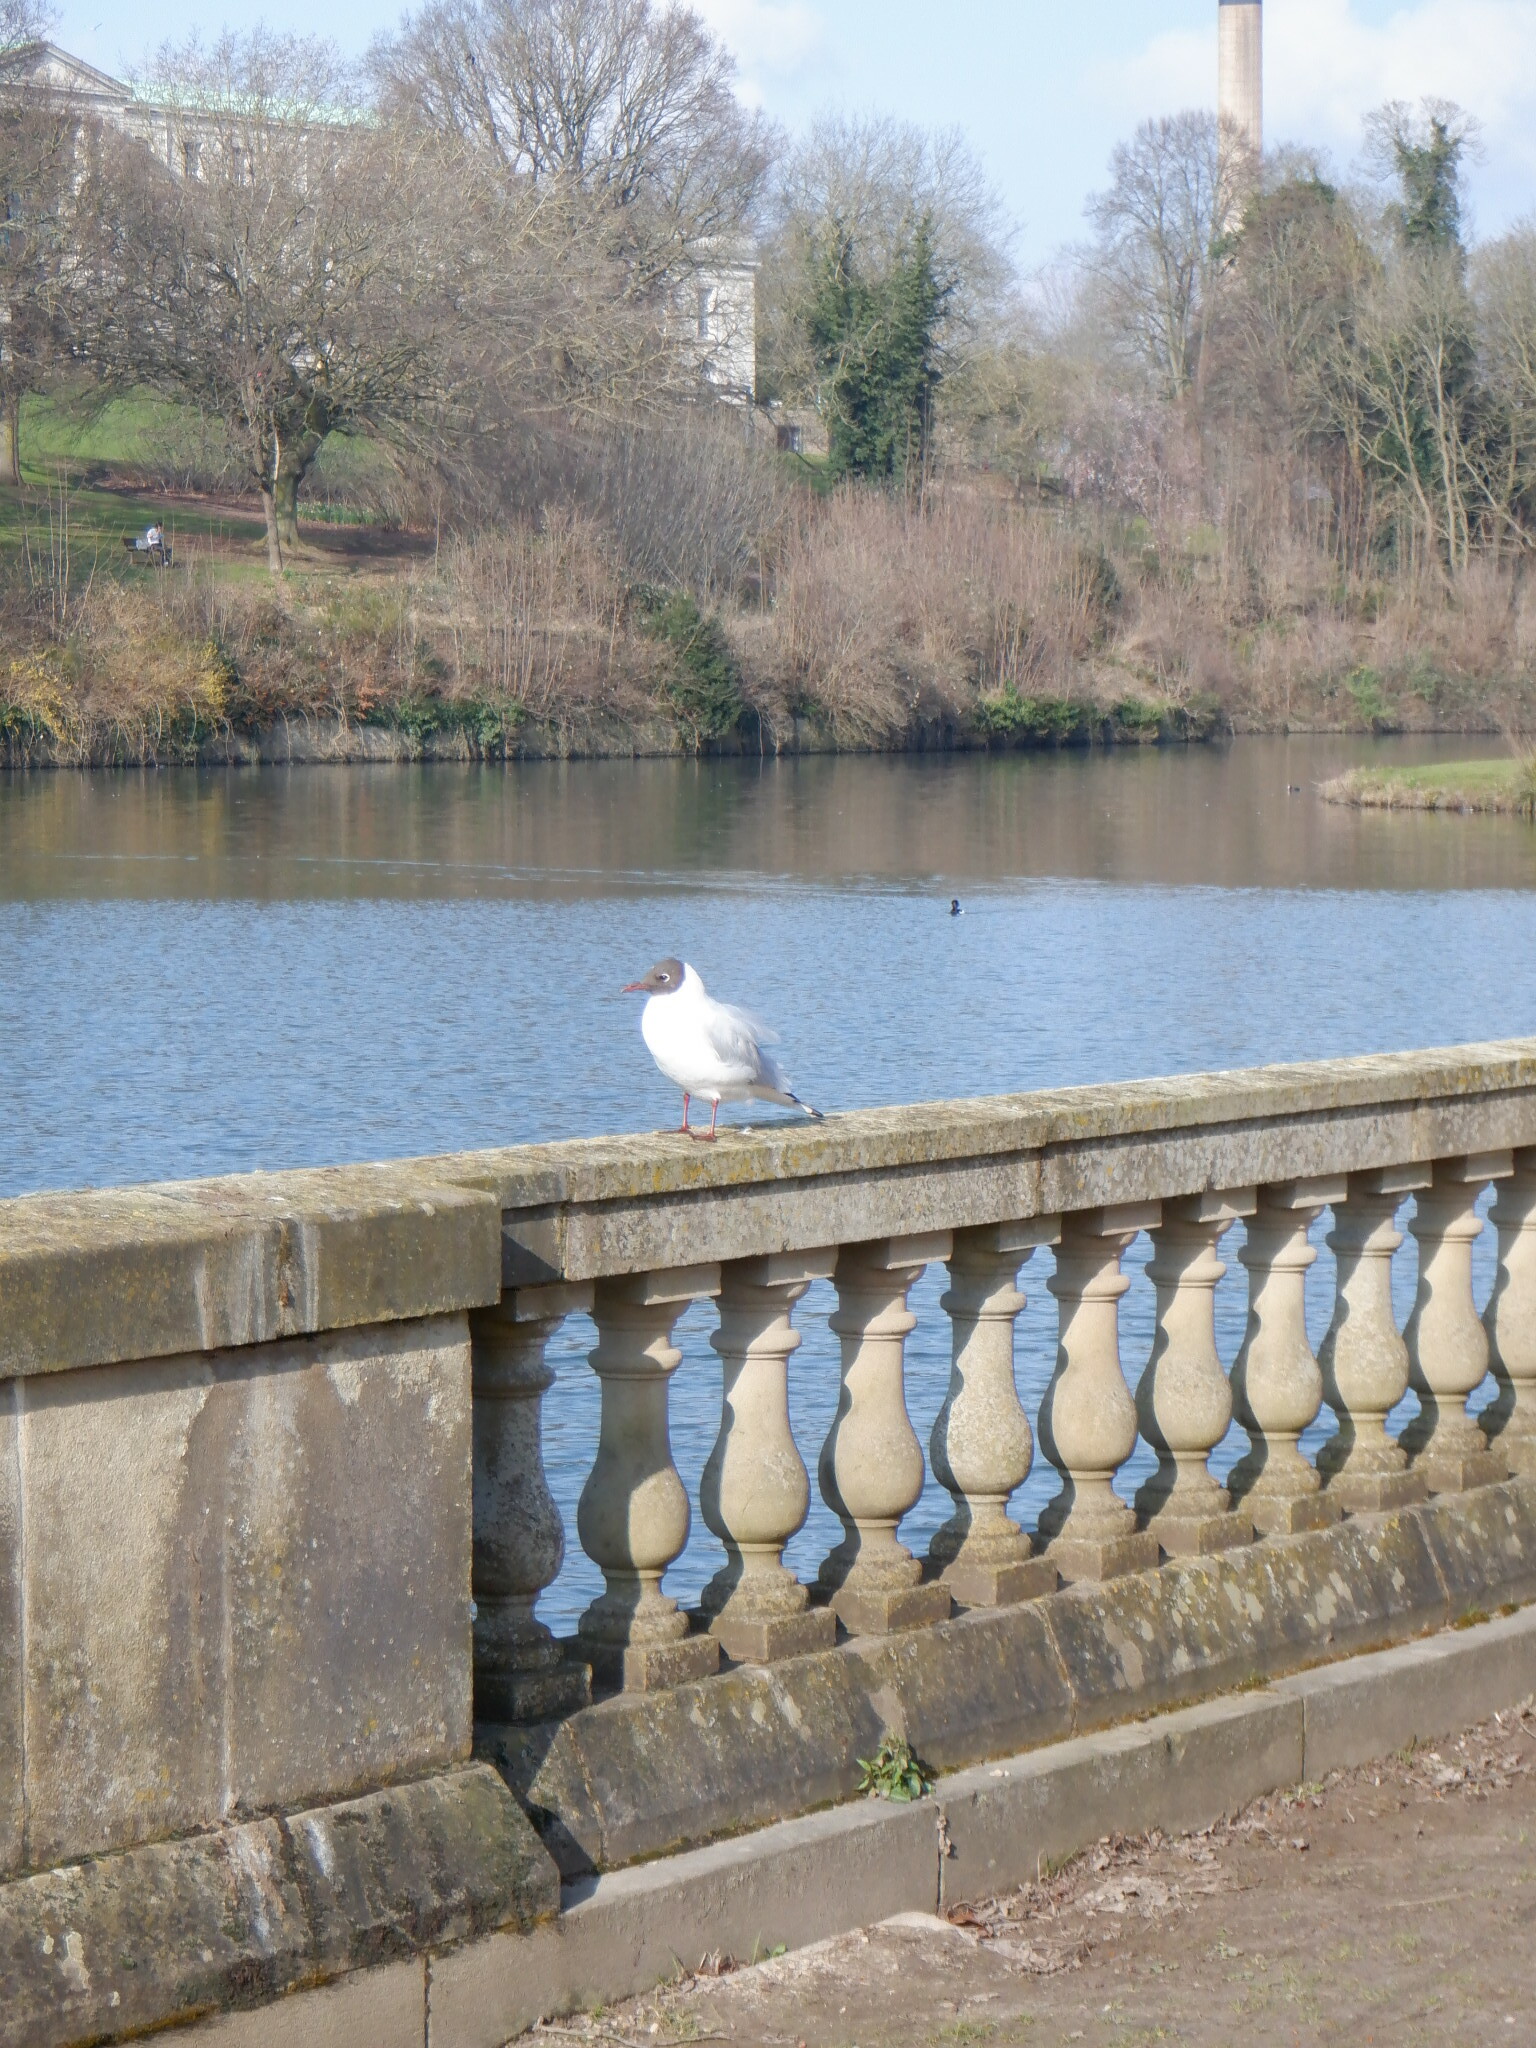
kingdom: Animalia
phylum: Chordata
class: Aves
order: Charadriiformes
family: Laridae
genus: Chroicocephalus
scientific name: Chroicocephalus ridibundus
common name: Black-headed gull
